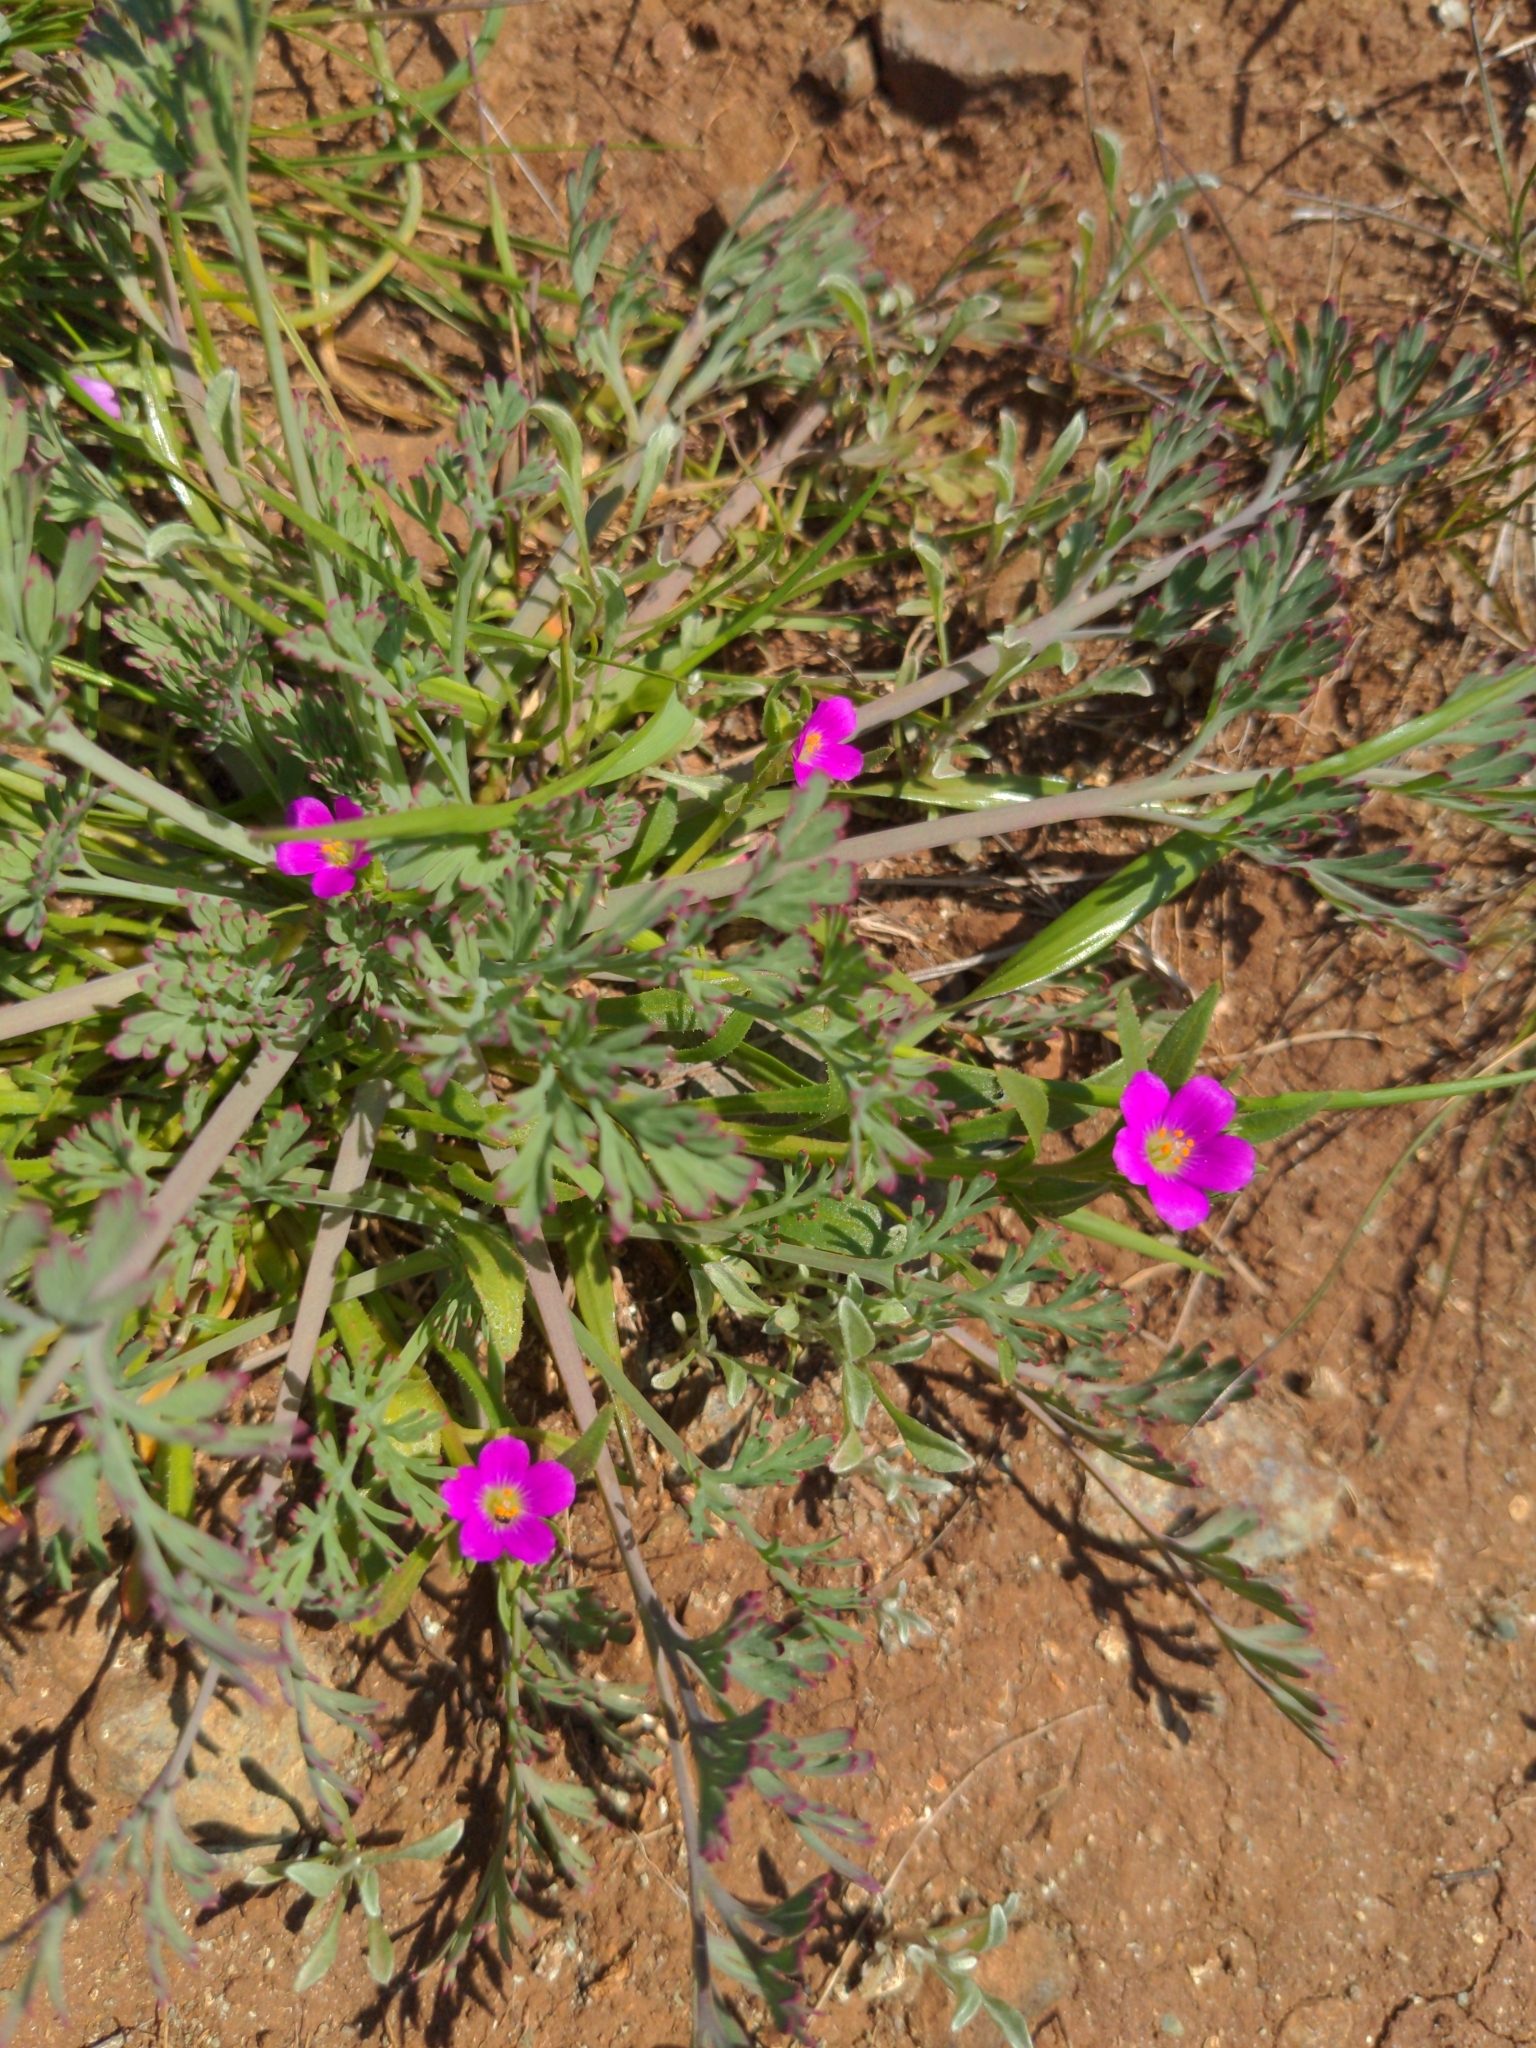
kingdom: Plantae
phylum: Tracheophyta
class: Magnoliopsida
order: Caryophyllales
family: Montiaceae
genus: Calandrinia
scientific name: Calandrinia menziesii
